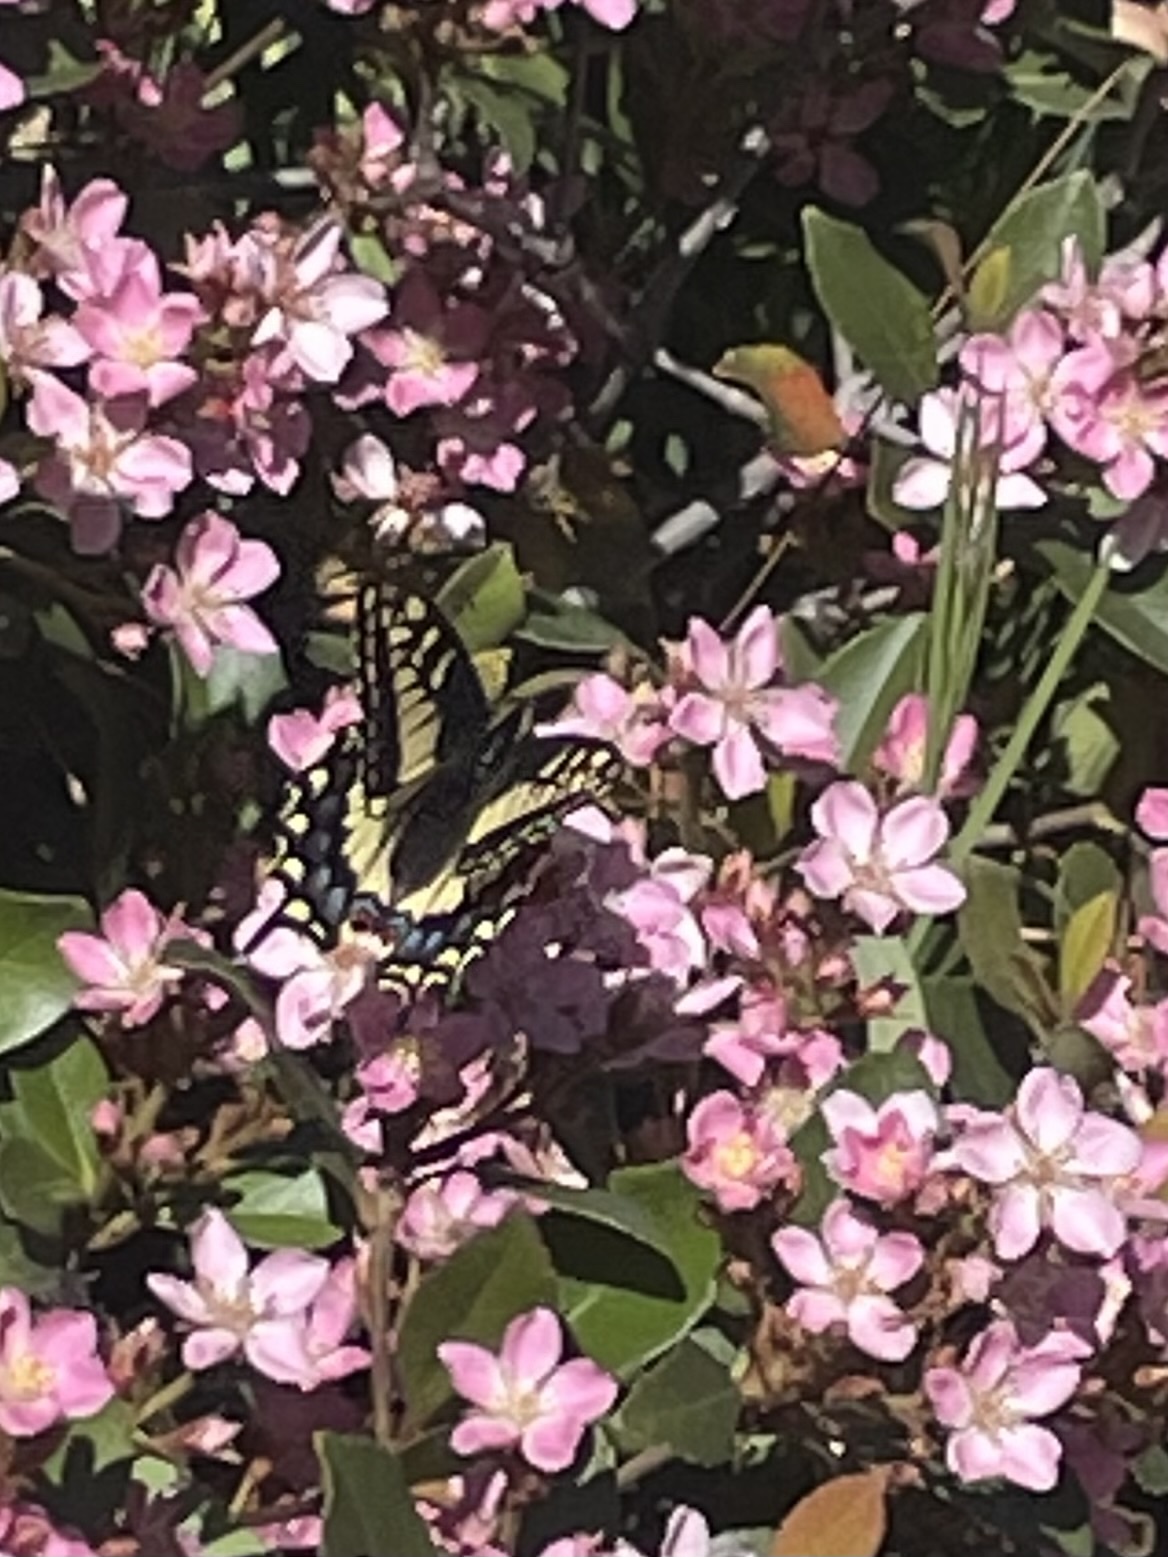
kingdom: Animalia
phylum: Arthropoda
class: Insecta
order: Lepidoptera
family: Papilionidae
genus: Papilio
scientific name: Papilio zelicaon
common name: Anise swallowtail
